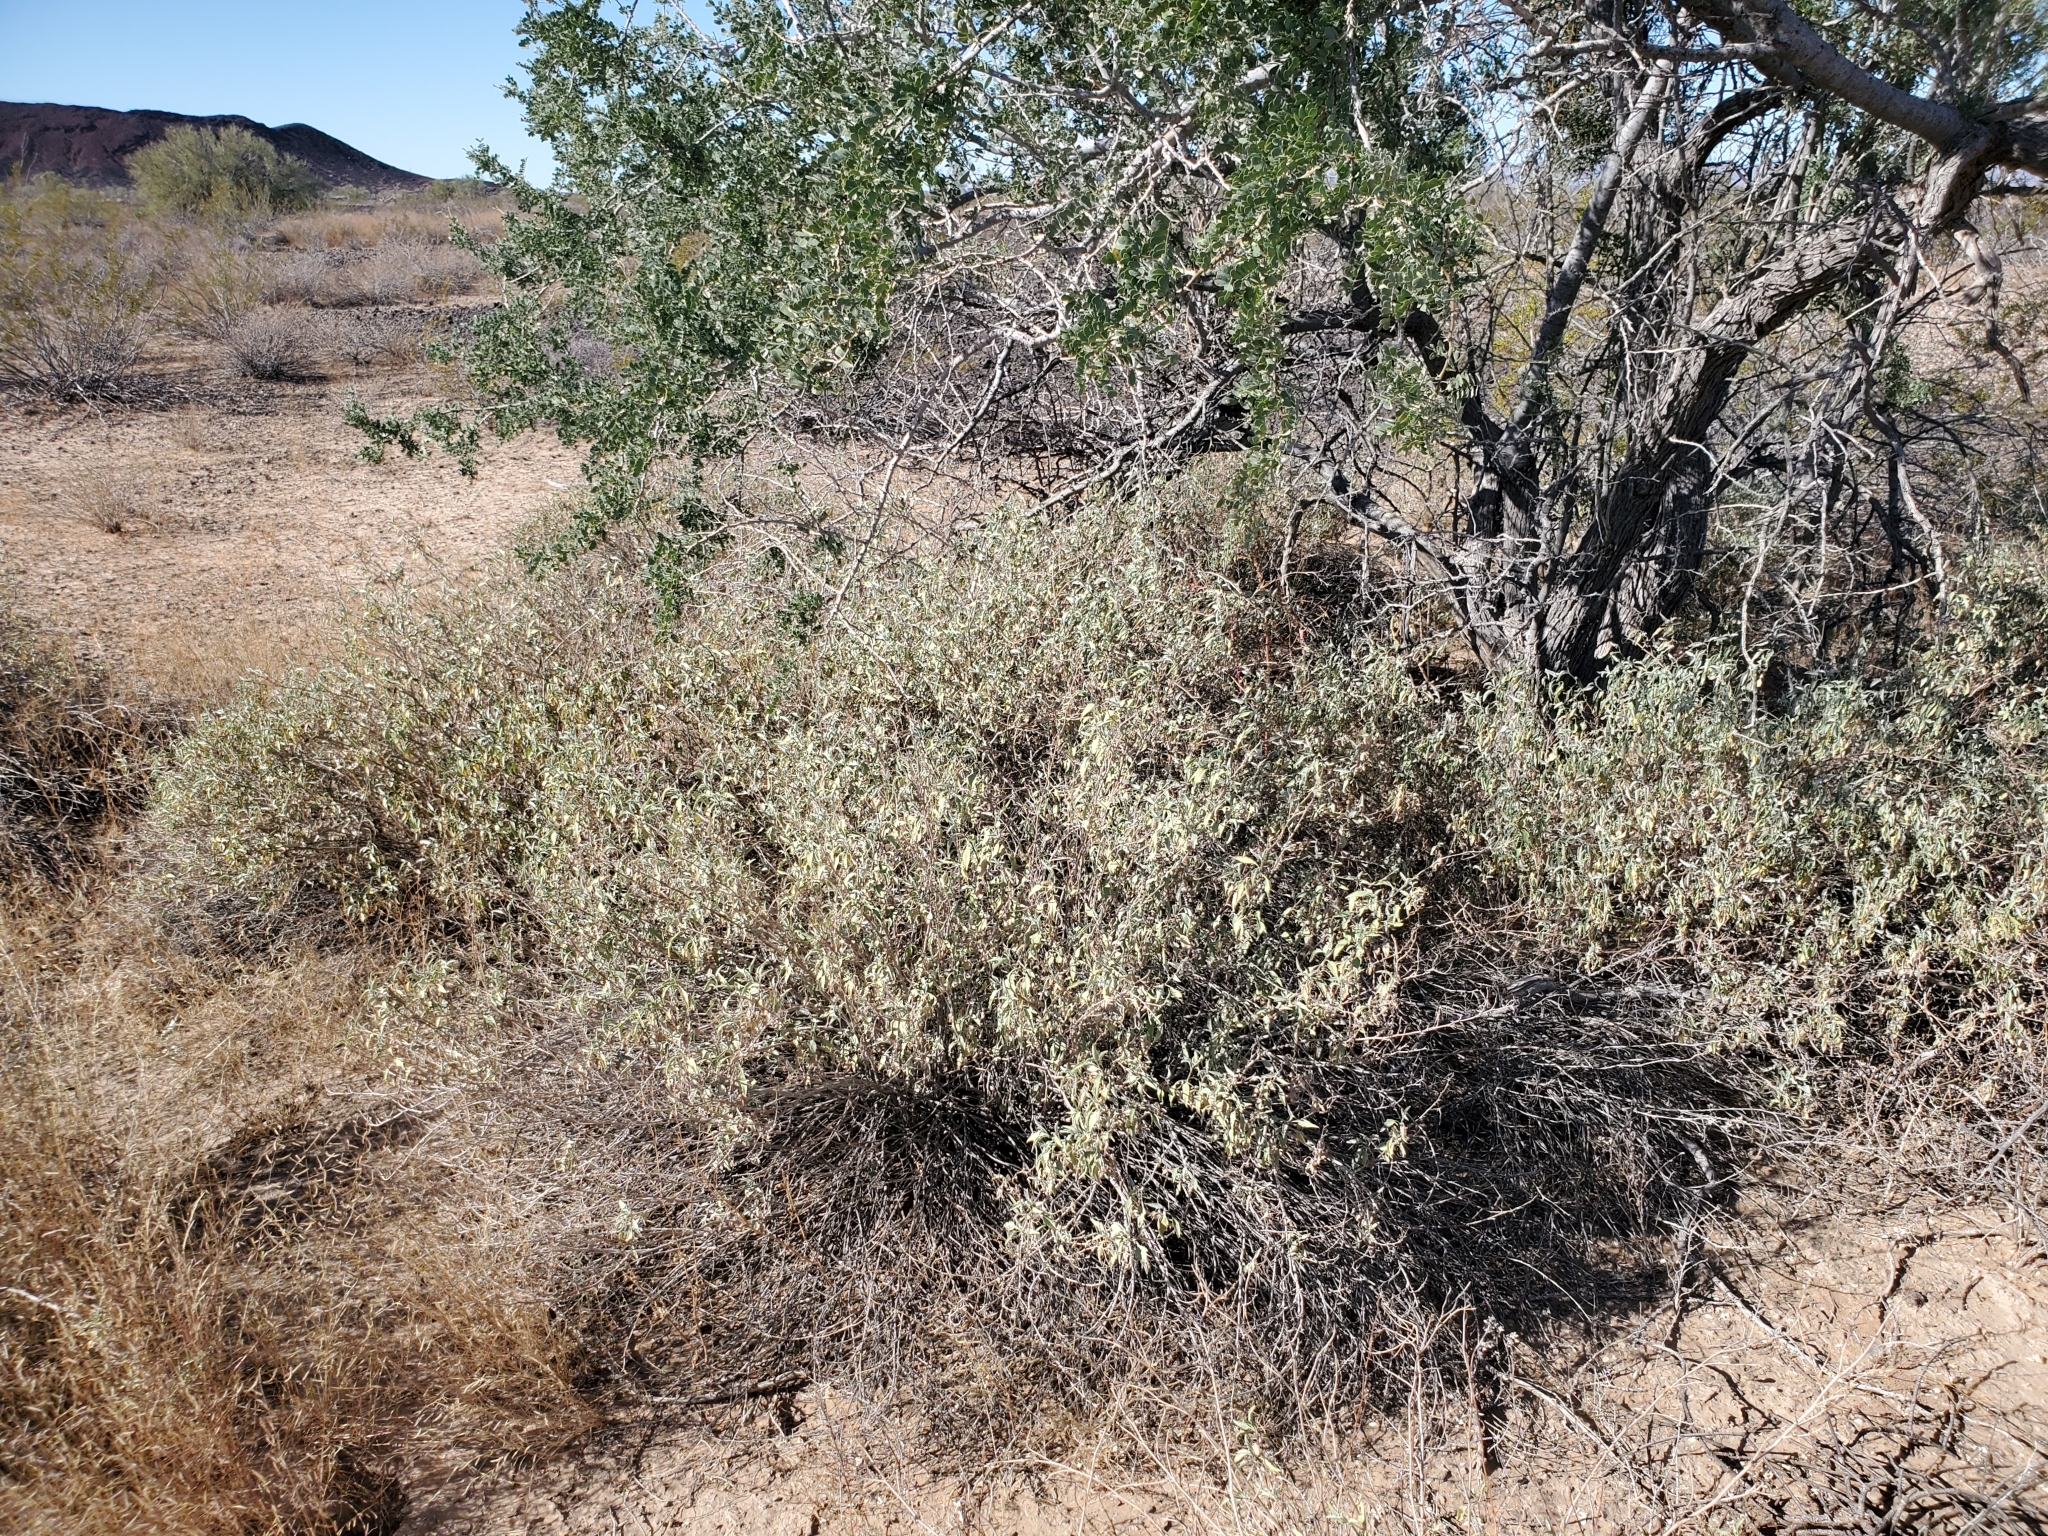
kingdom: Plantae
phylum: Tracheophyta
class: Magnoliopsida
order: Asterales
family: Asteraceae
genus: Ambrosia
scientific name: Ambrosia deltoidea
